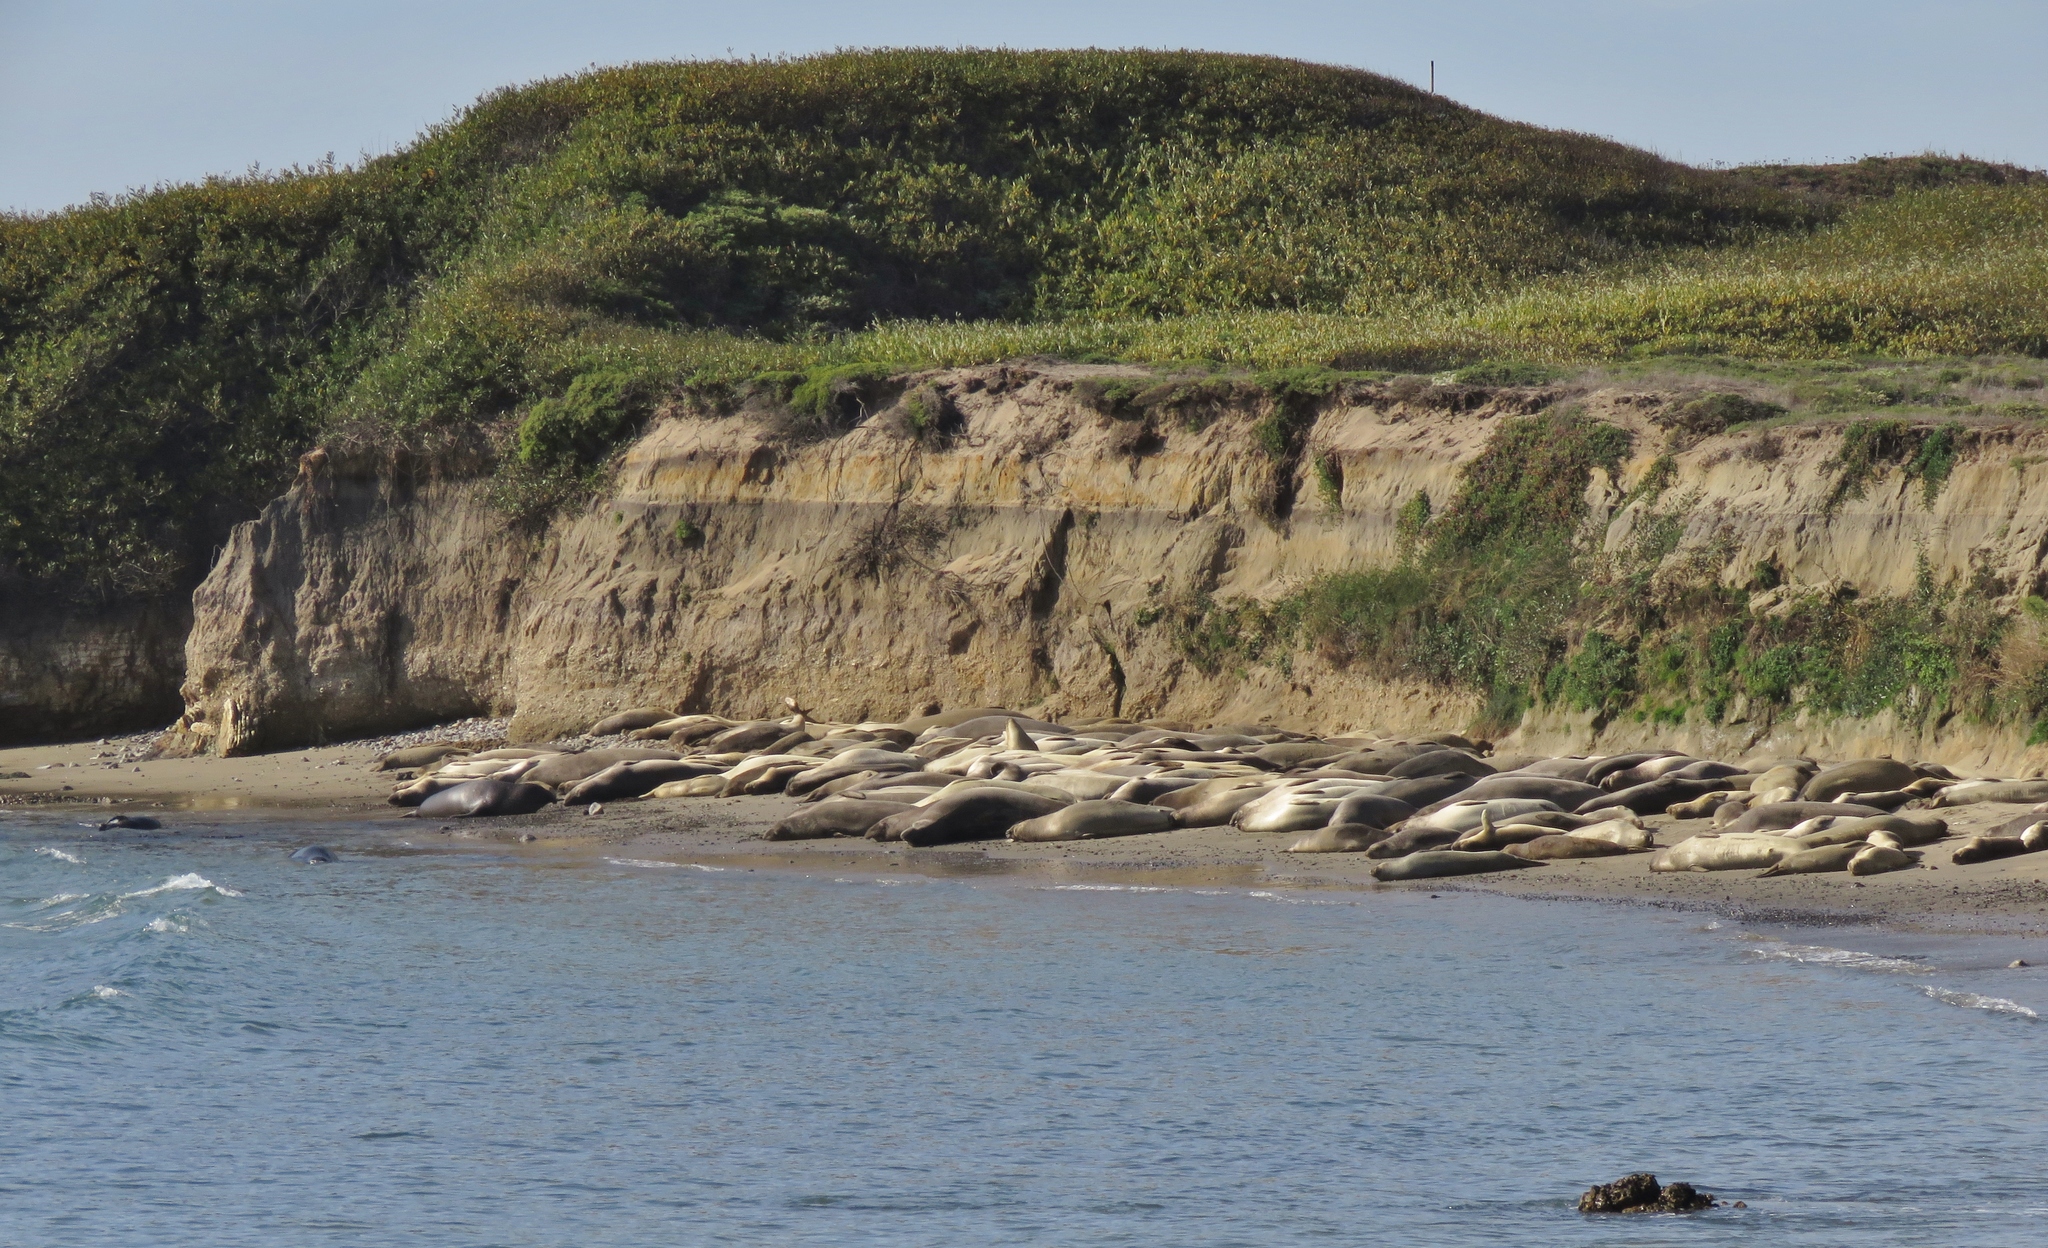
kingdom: Animalia
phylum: Chordata
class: Mammalia
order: Carnivora
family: Phocidae
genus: Mirounga
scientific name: Mirounga angustirostris
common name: Northern elephant seal
